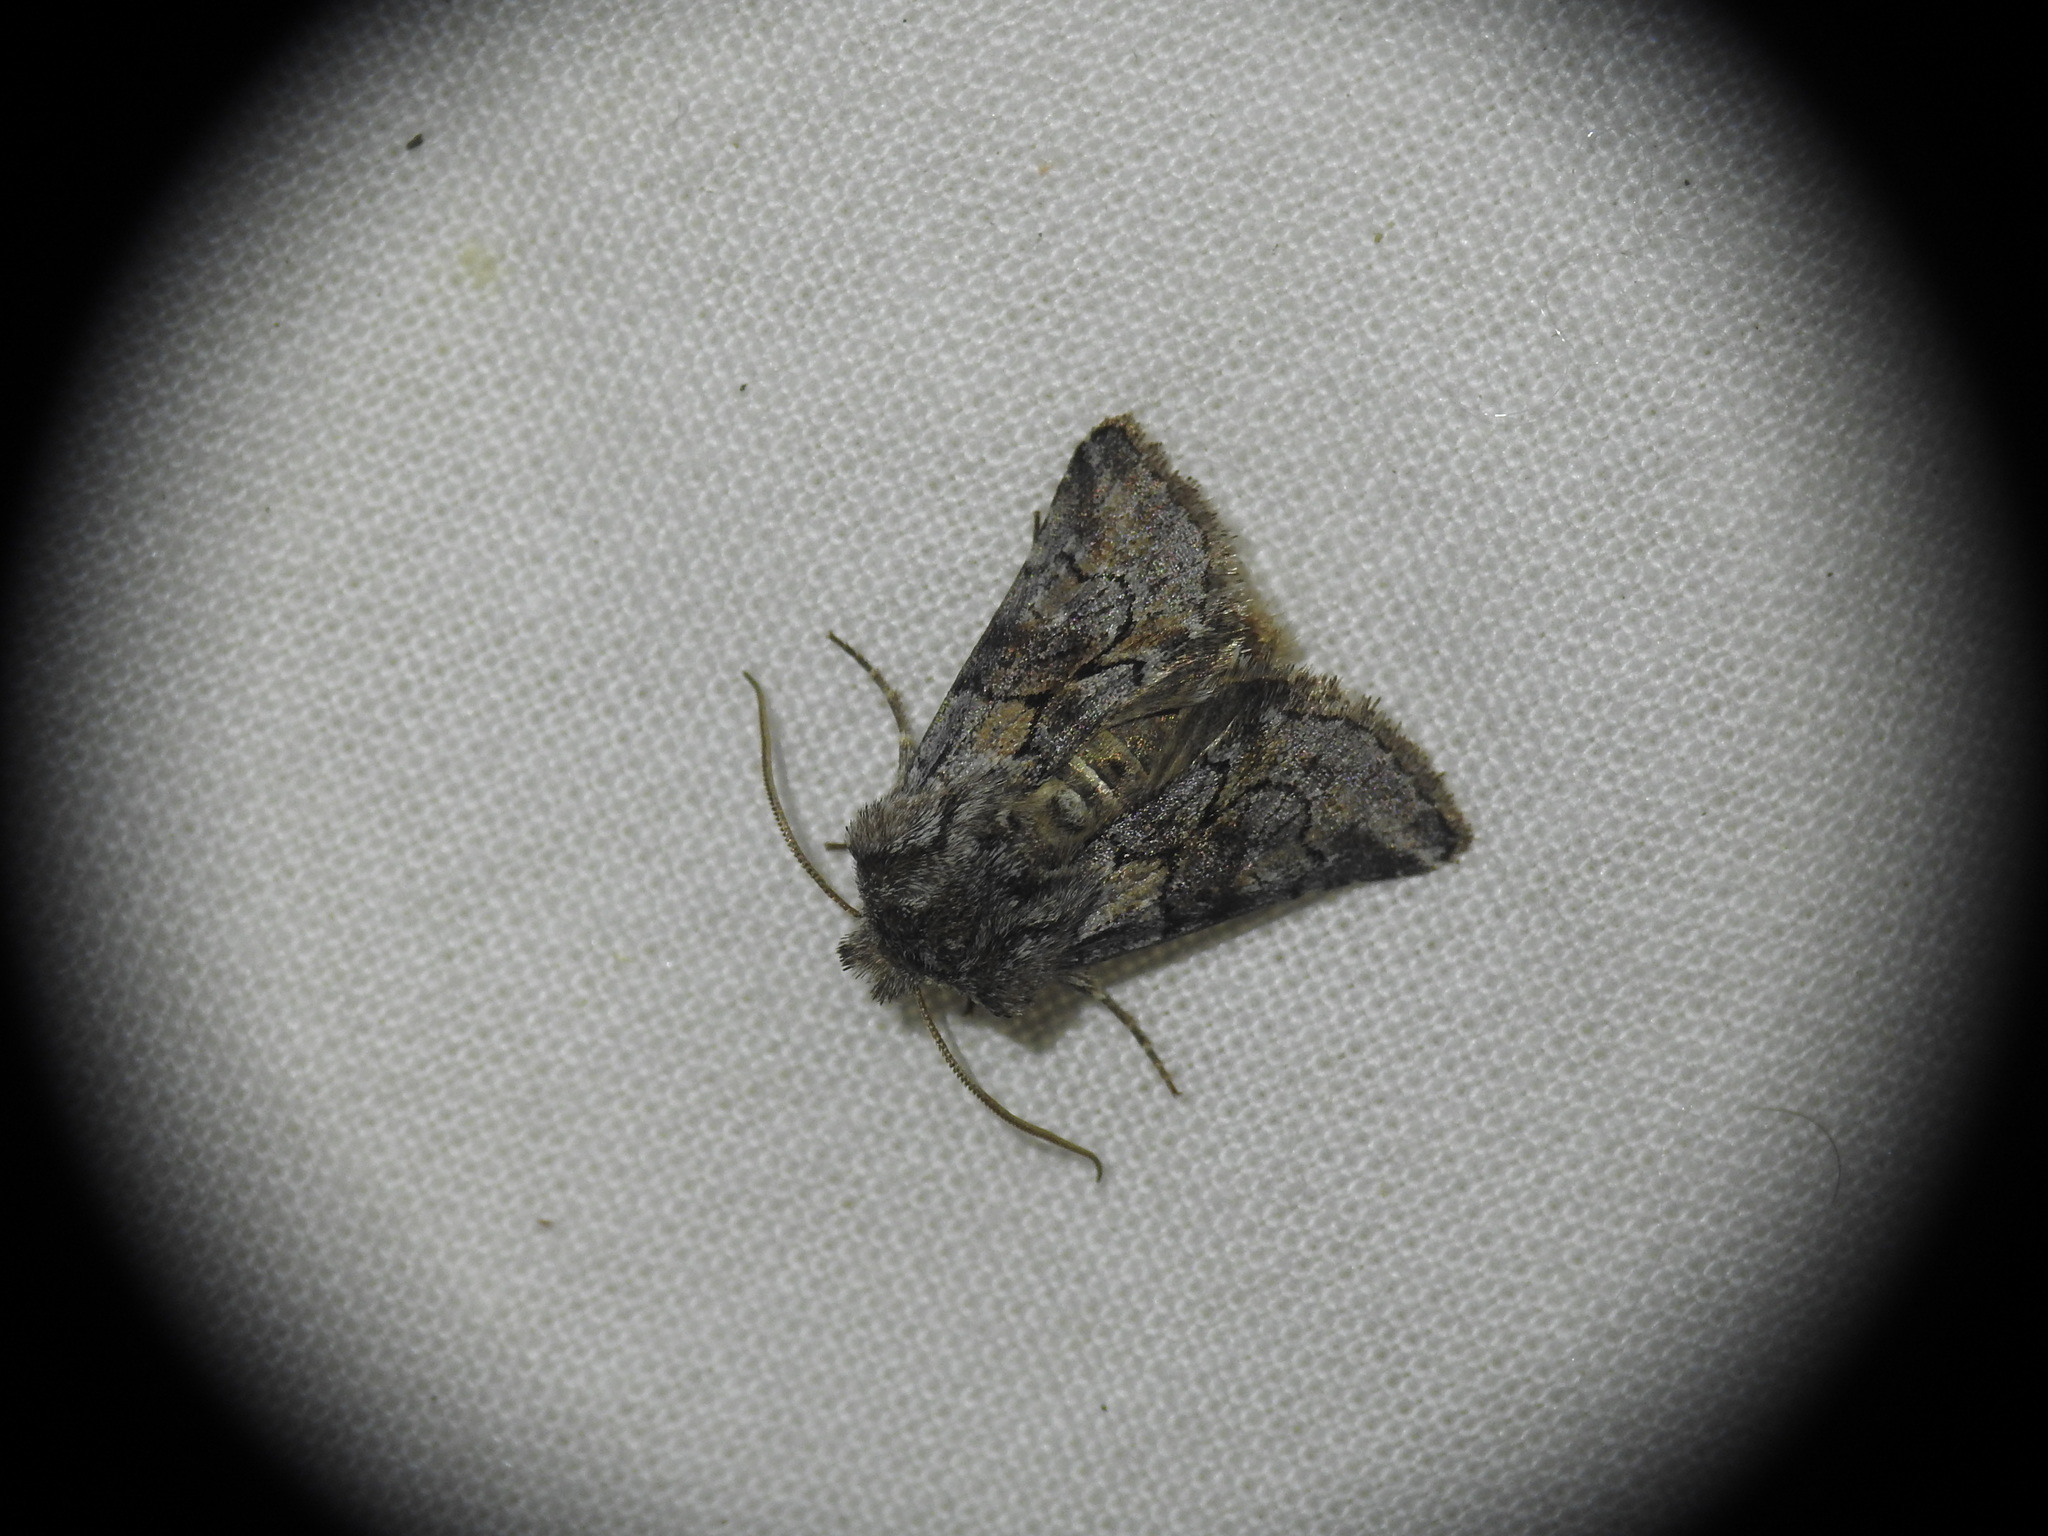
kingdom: Animalia
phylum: Arthropoda
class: Insecta
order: Lepidoptera
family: Noctuidae
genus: Cleonymia
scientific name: Cleonymia yvanii
